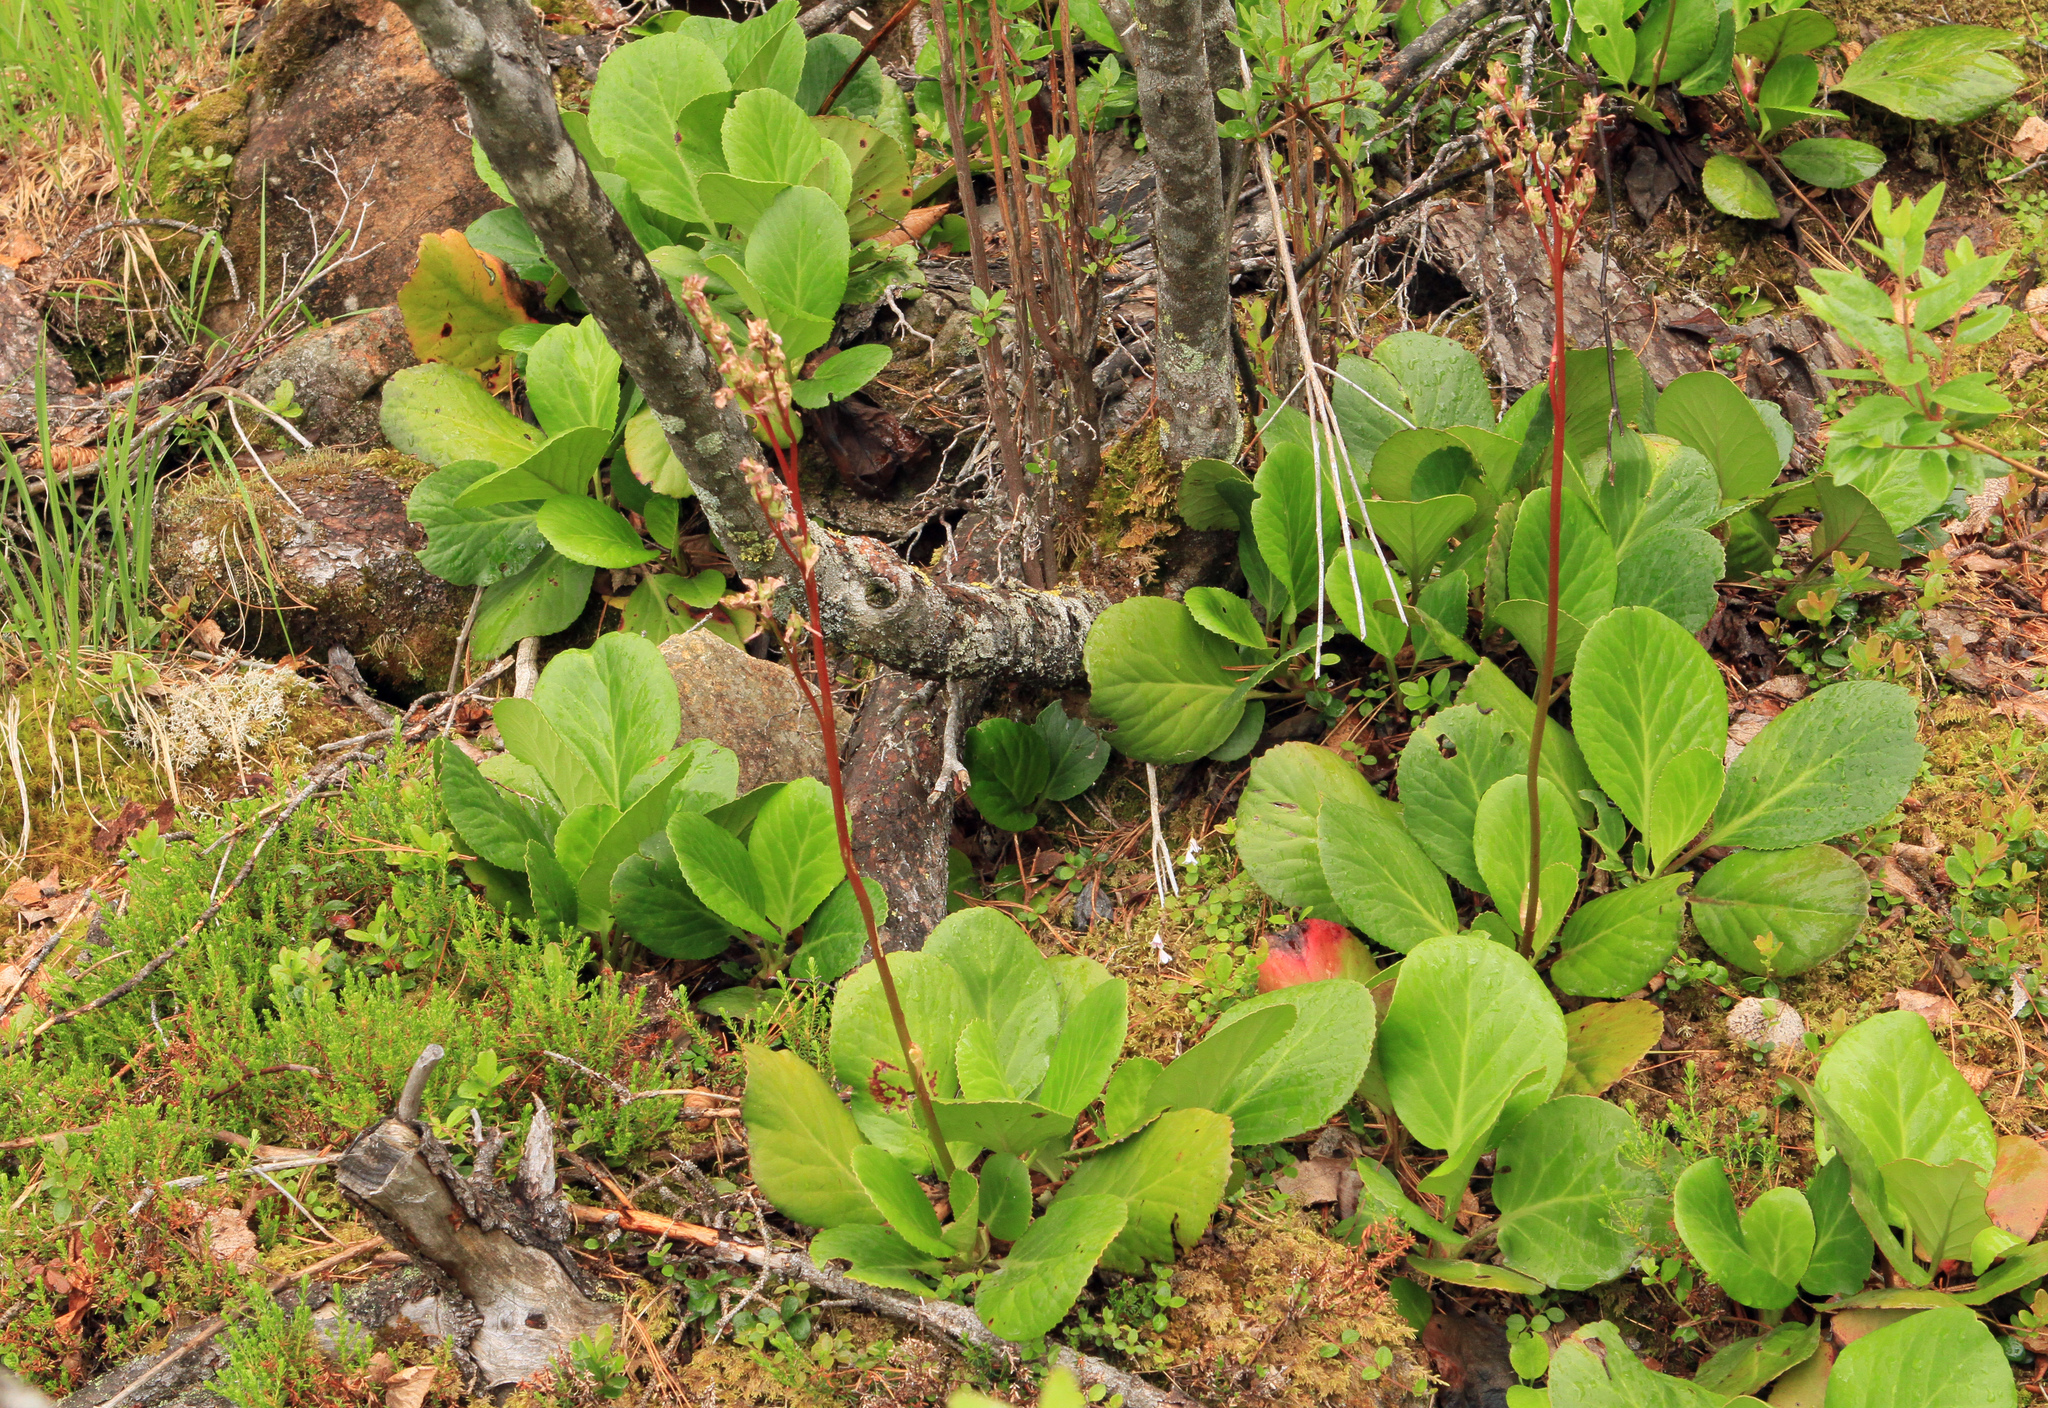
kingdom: Plantae
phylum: Tracheophyta
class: Magnoliopsida
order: Saxifragales
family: Saxifragaceae
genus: Bergenia
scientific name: Bergenia crassifolia
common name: Elephant-ears
